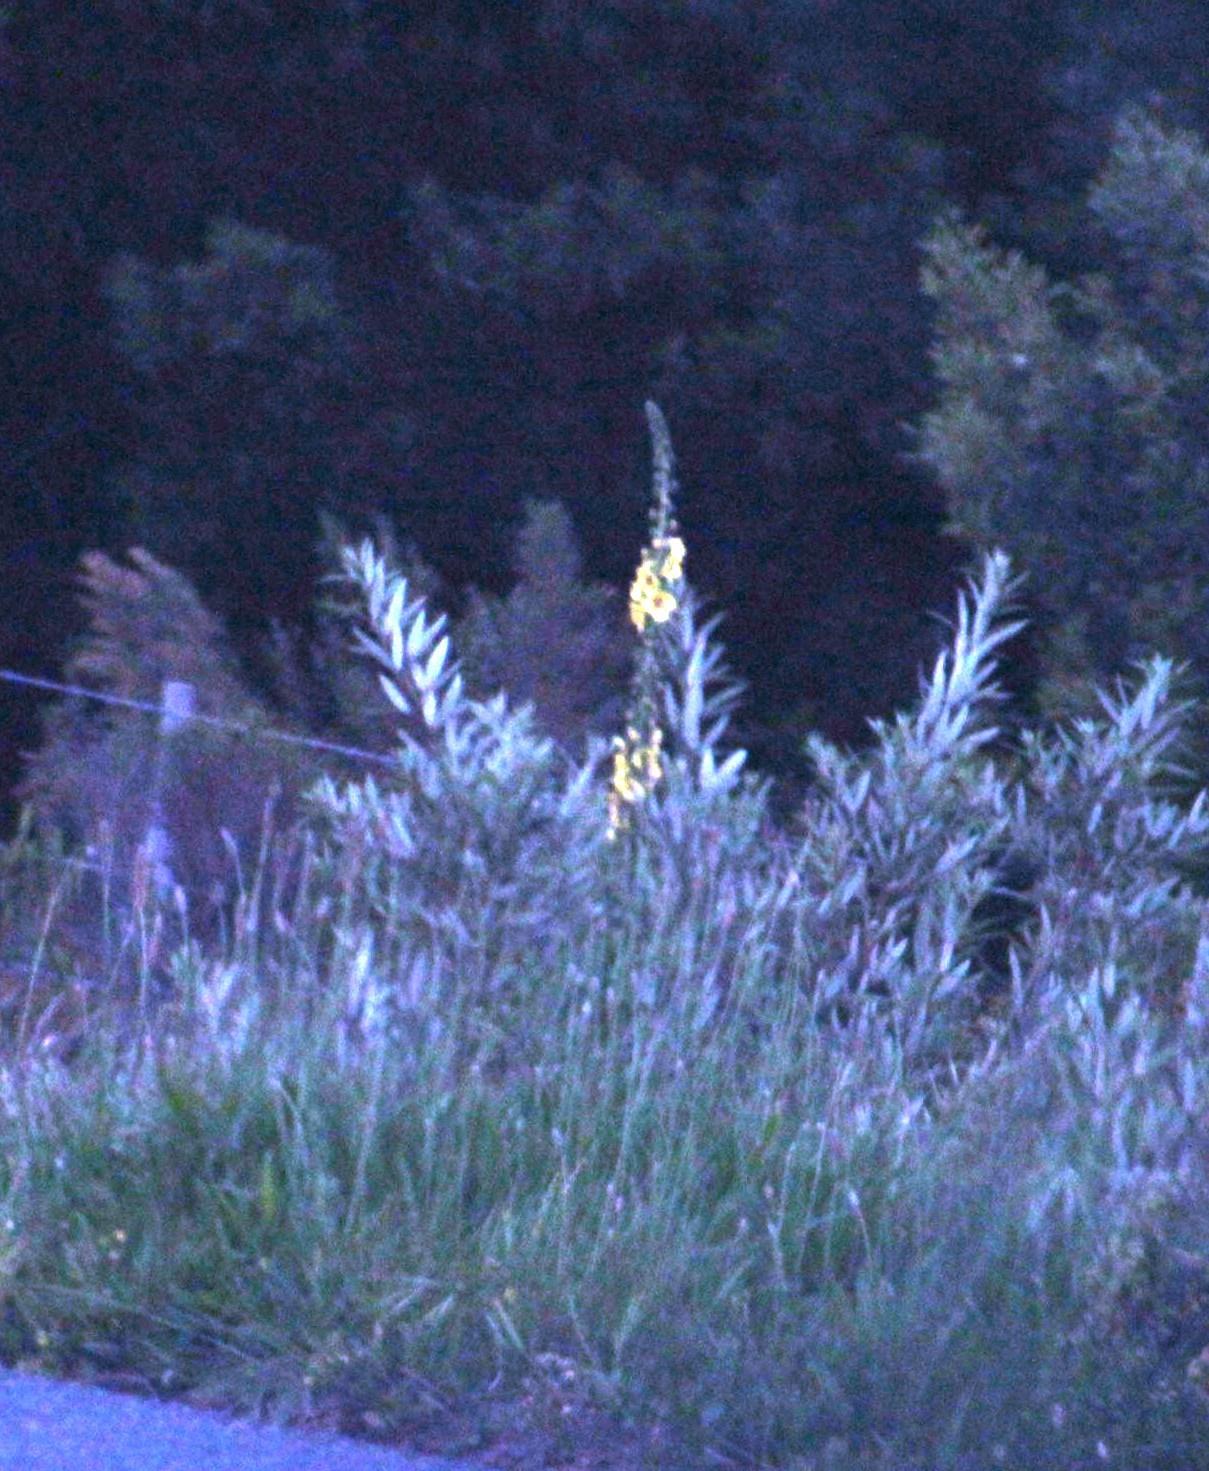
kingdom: Plantae
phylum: Tracheophyta
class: Magnoliopsida
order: Lamiales
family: Scrophulariaceae
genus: Verbascum
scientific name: Verbascum virgatum
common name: Twiggy mullein
